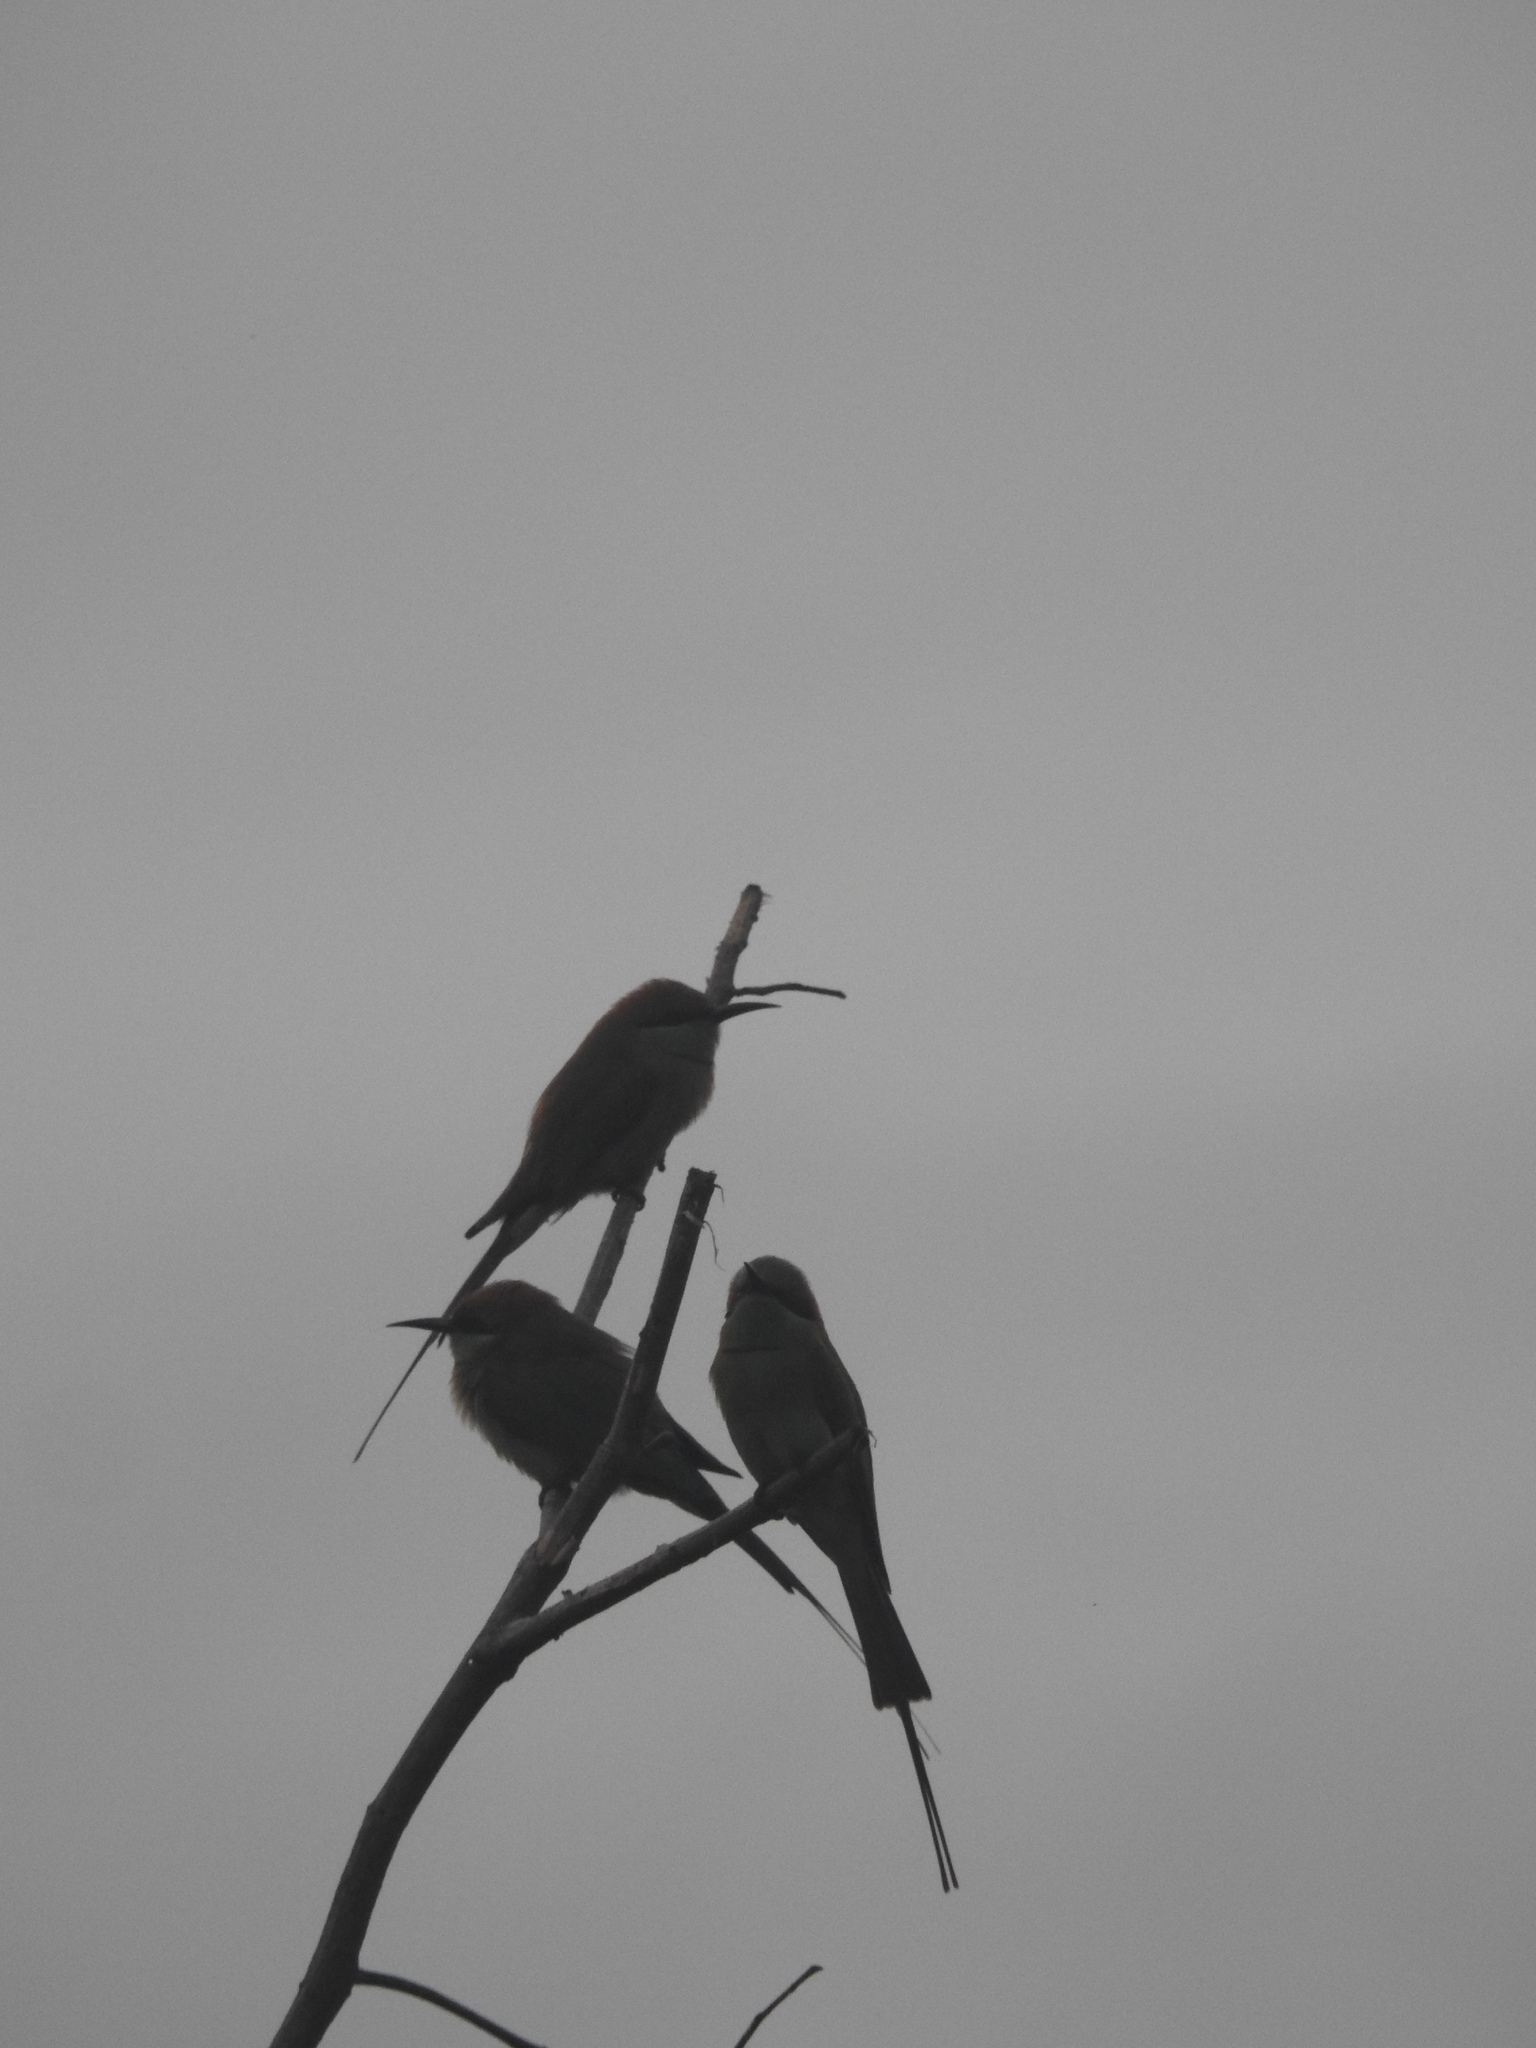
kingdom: Animalia
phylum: Chordata
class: Aves
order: Coraciiformes
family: Meropidae
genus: Merops
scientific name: Merops orientalis
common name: Green bee-eater
